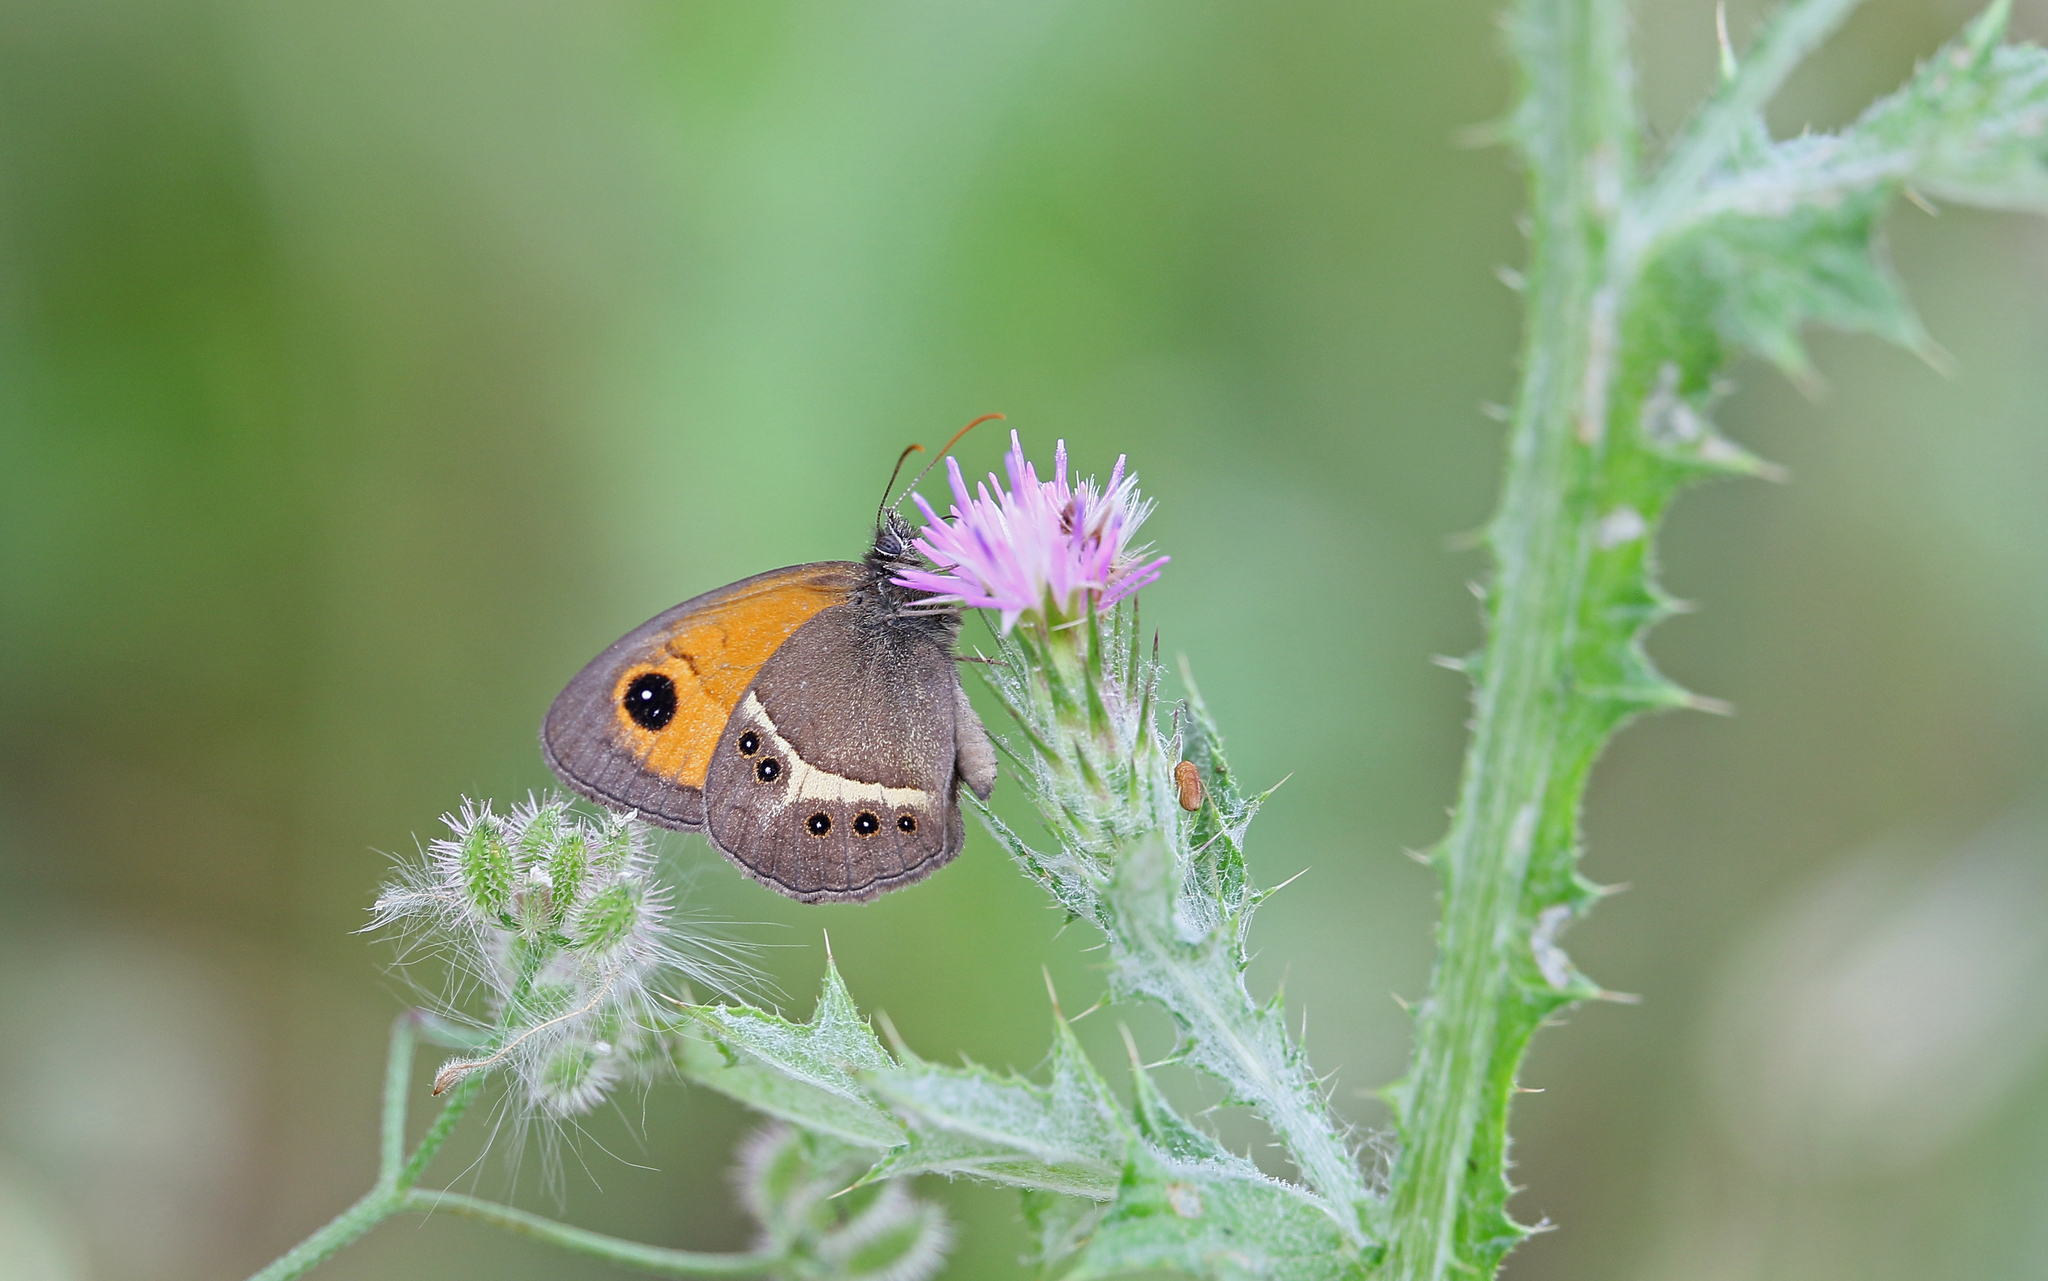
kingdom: Animalia
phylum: Arthropoda
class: Insecta
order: Lepidoptera
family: Nymphalidae
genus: Pyronia
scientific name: Pyronia bathseba
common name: Spanish gatekeeper
